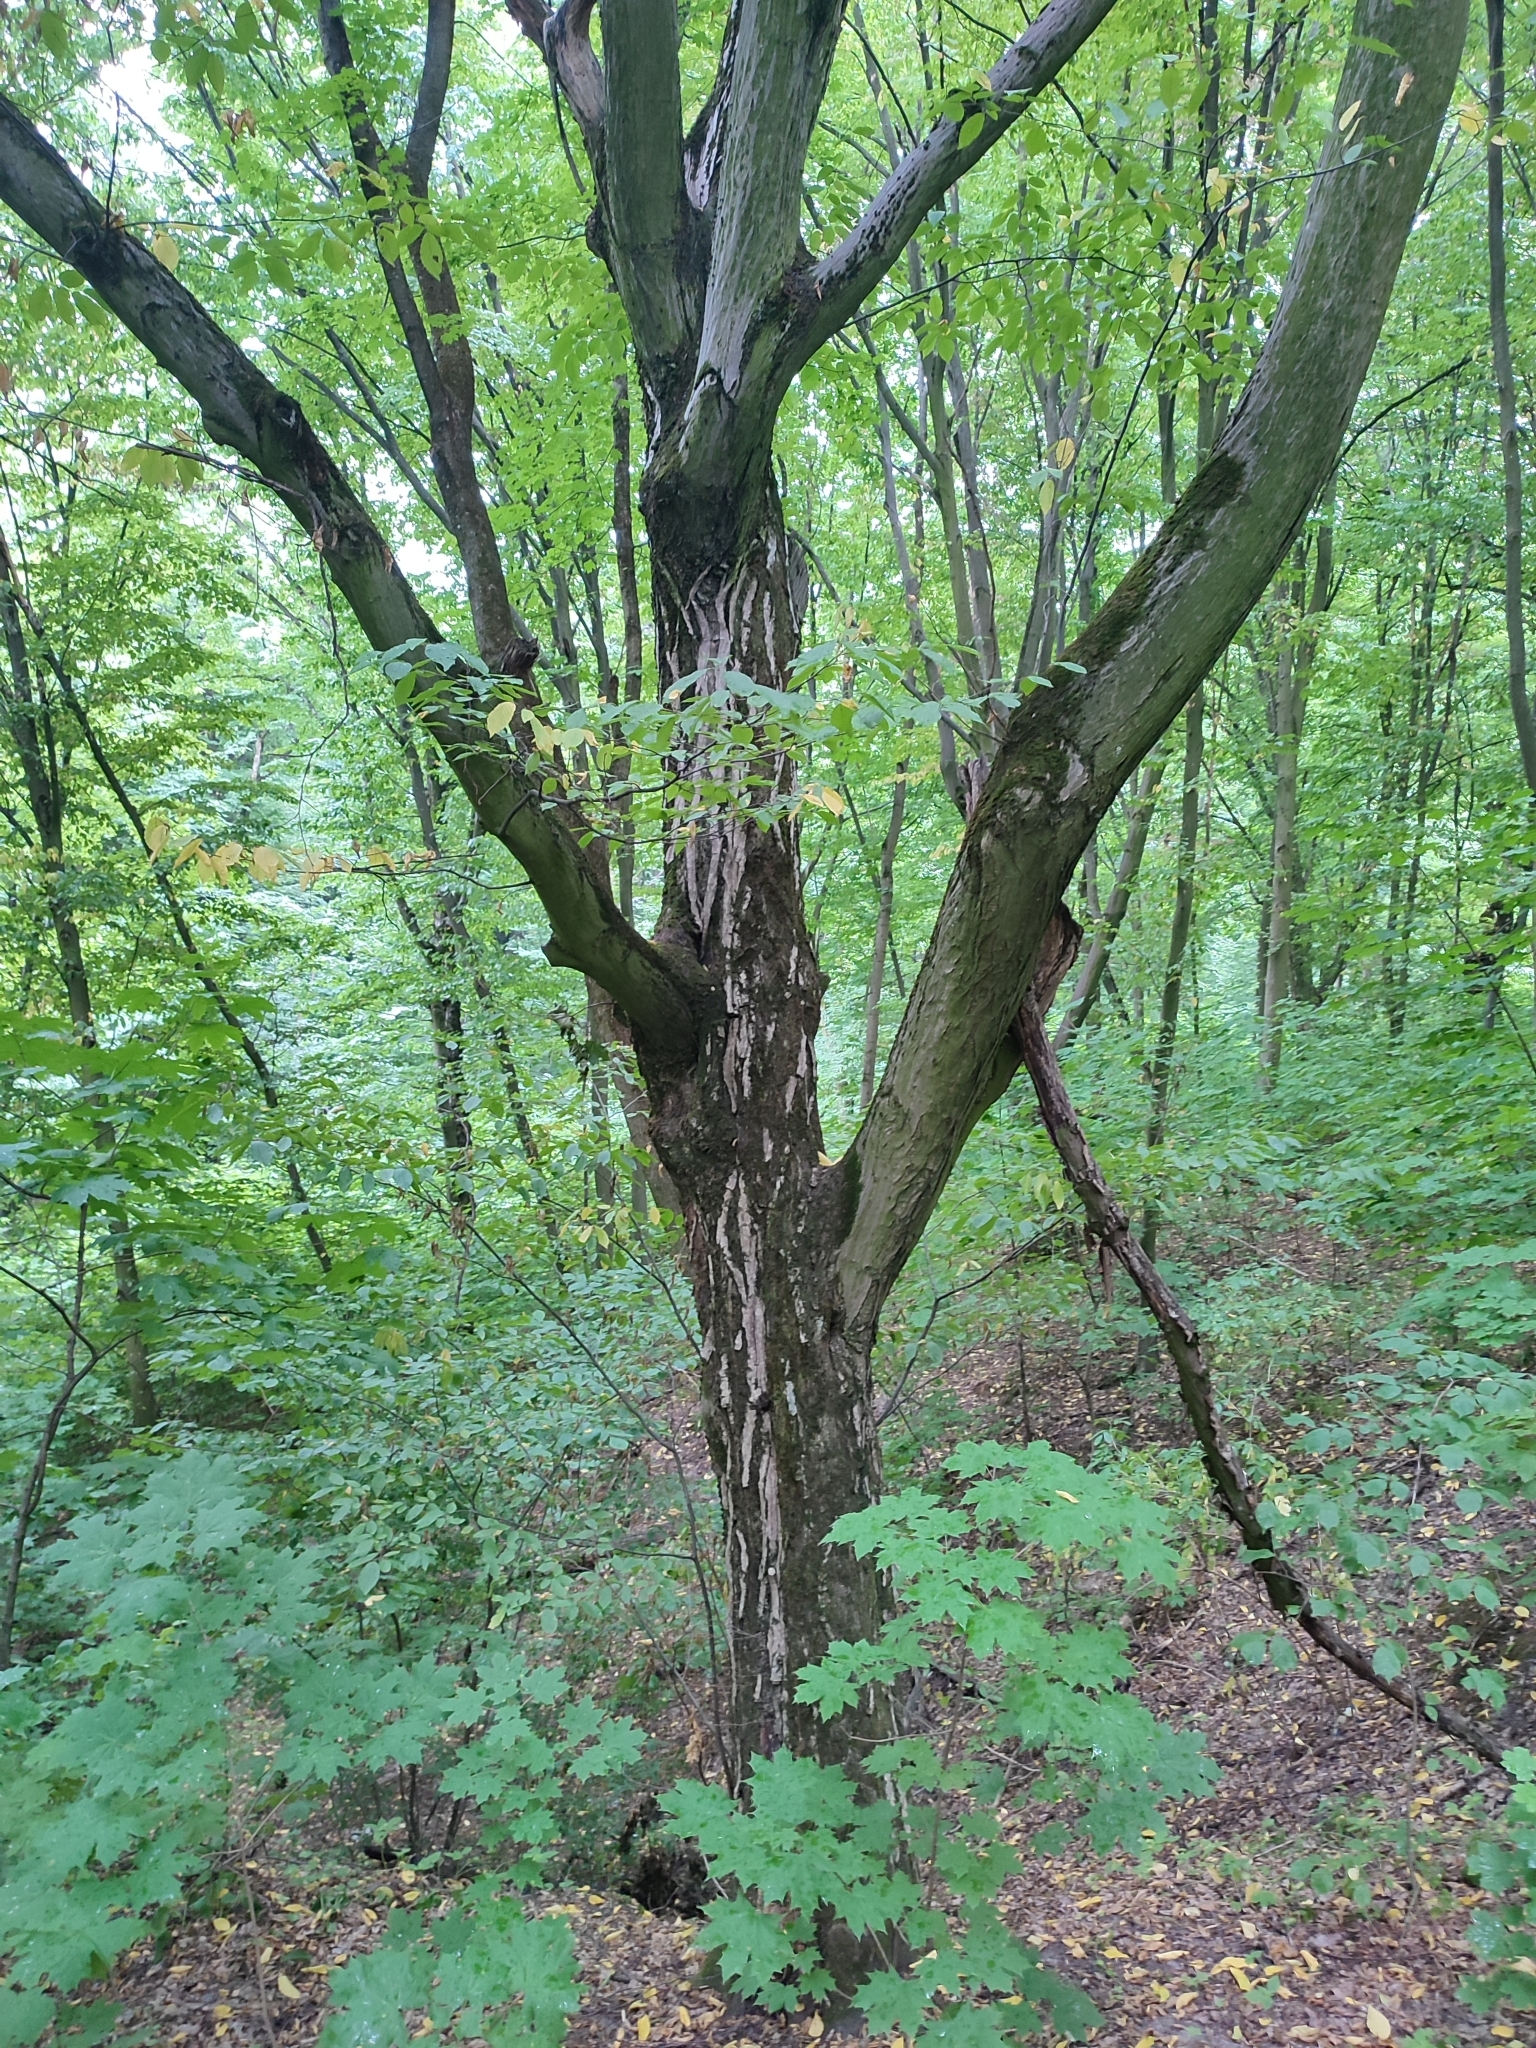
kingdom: Plantae
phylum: Tracheophyta
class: Magnoliopsida
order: Fagales
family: Betulaceae
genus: Carpinus
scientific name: Carpinus betulus
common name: Hornbeam
